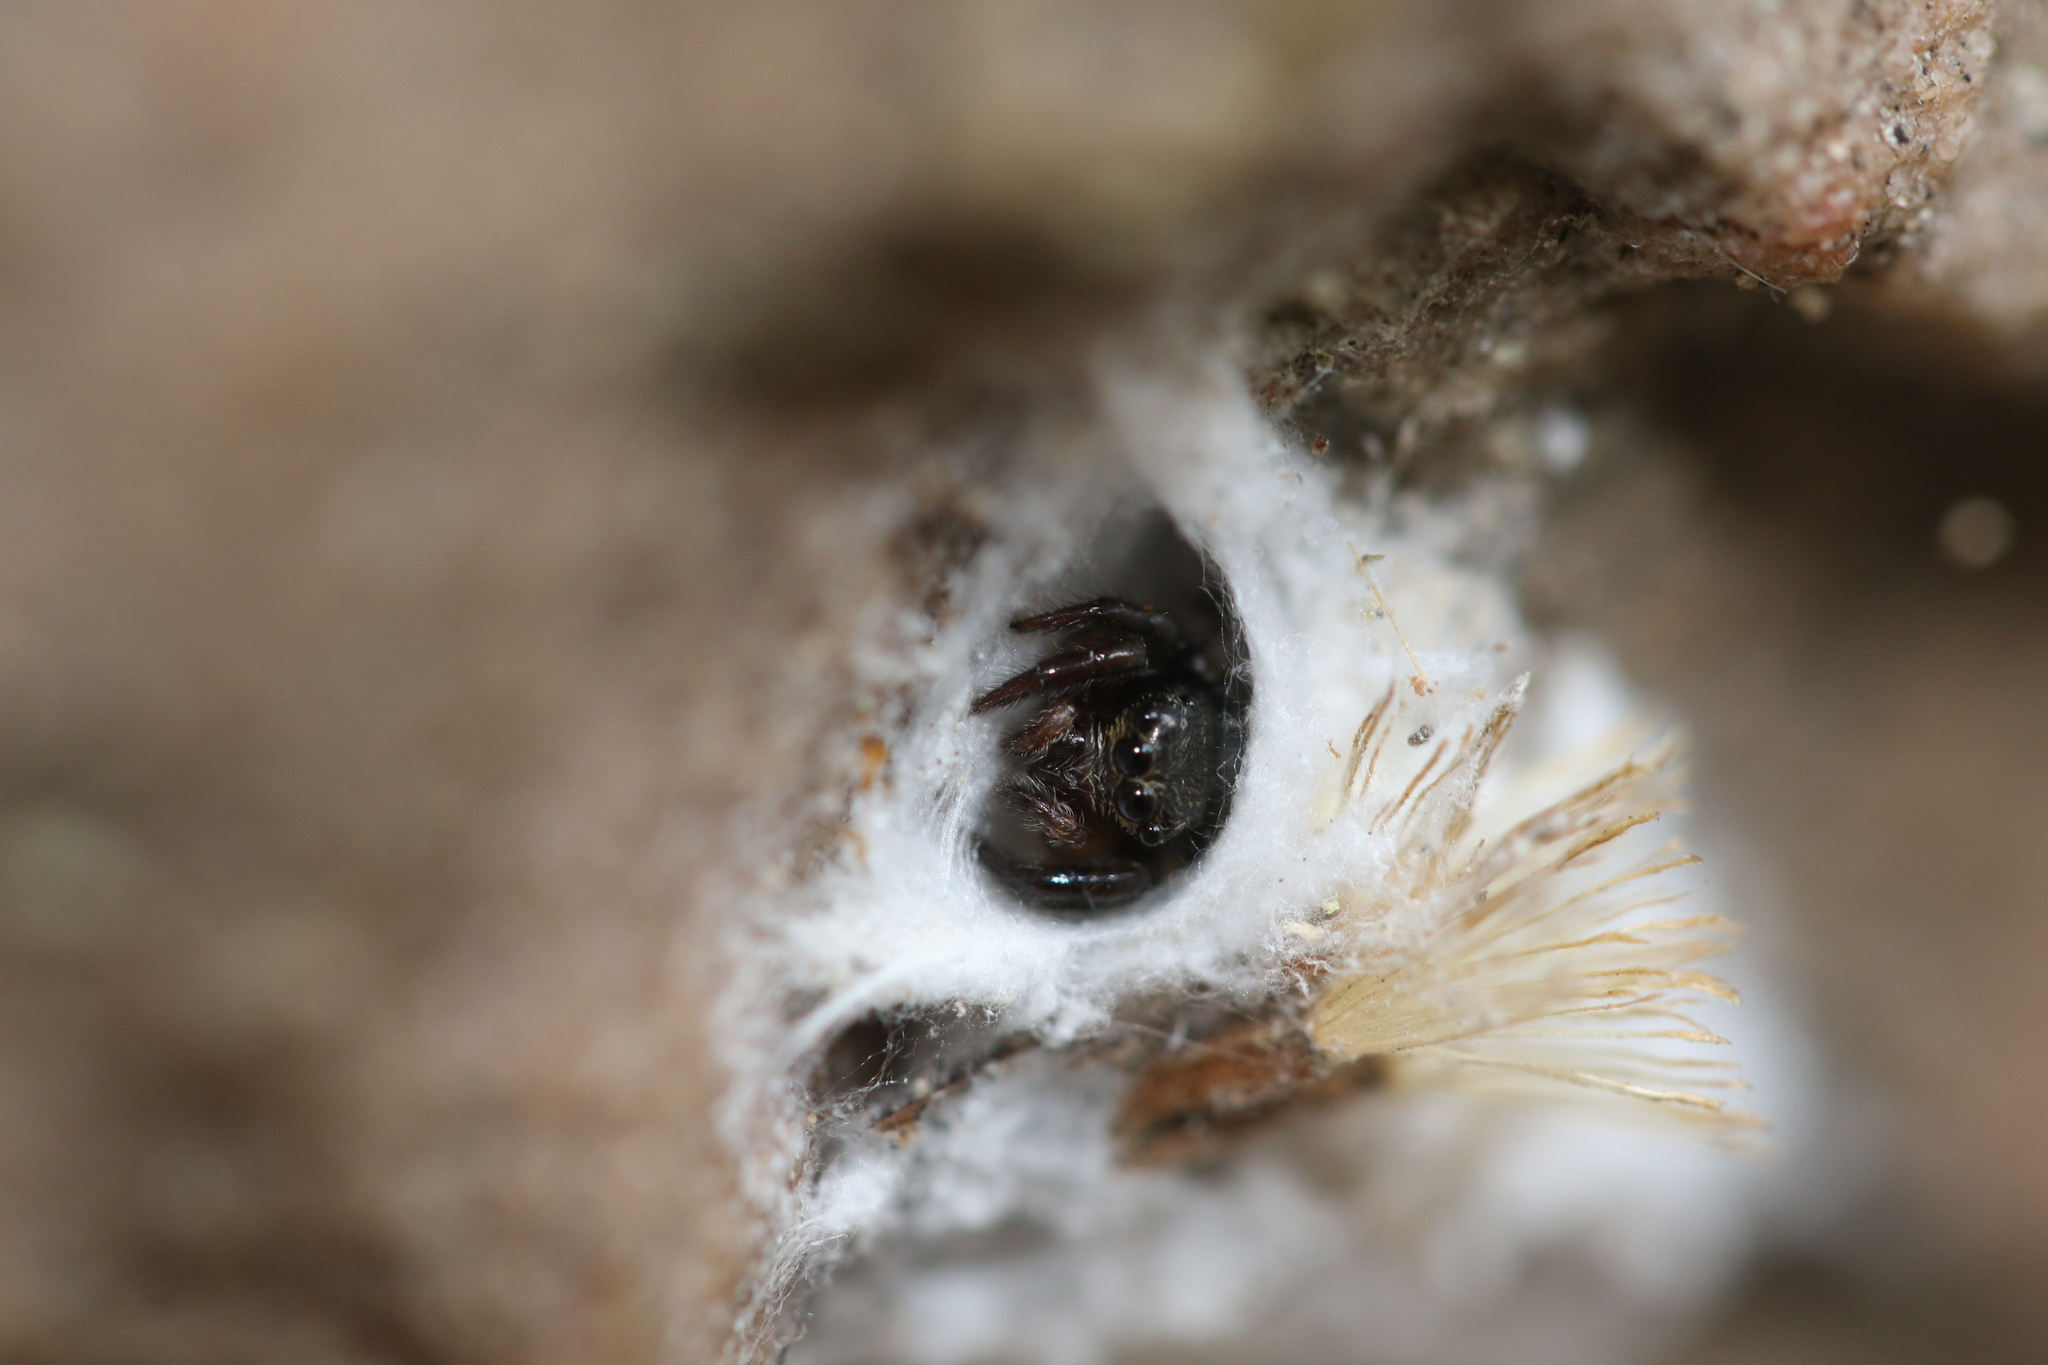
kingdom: Animalia
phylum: Arthropoda
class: Arachnida
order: Araneae
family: Salticidae
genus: Corythalia
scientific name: Corythalia conferta
